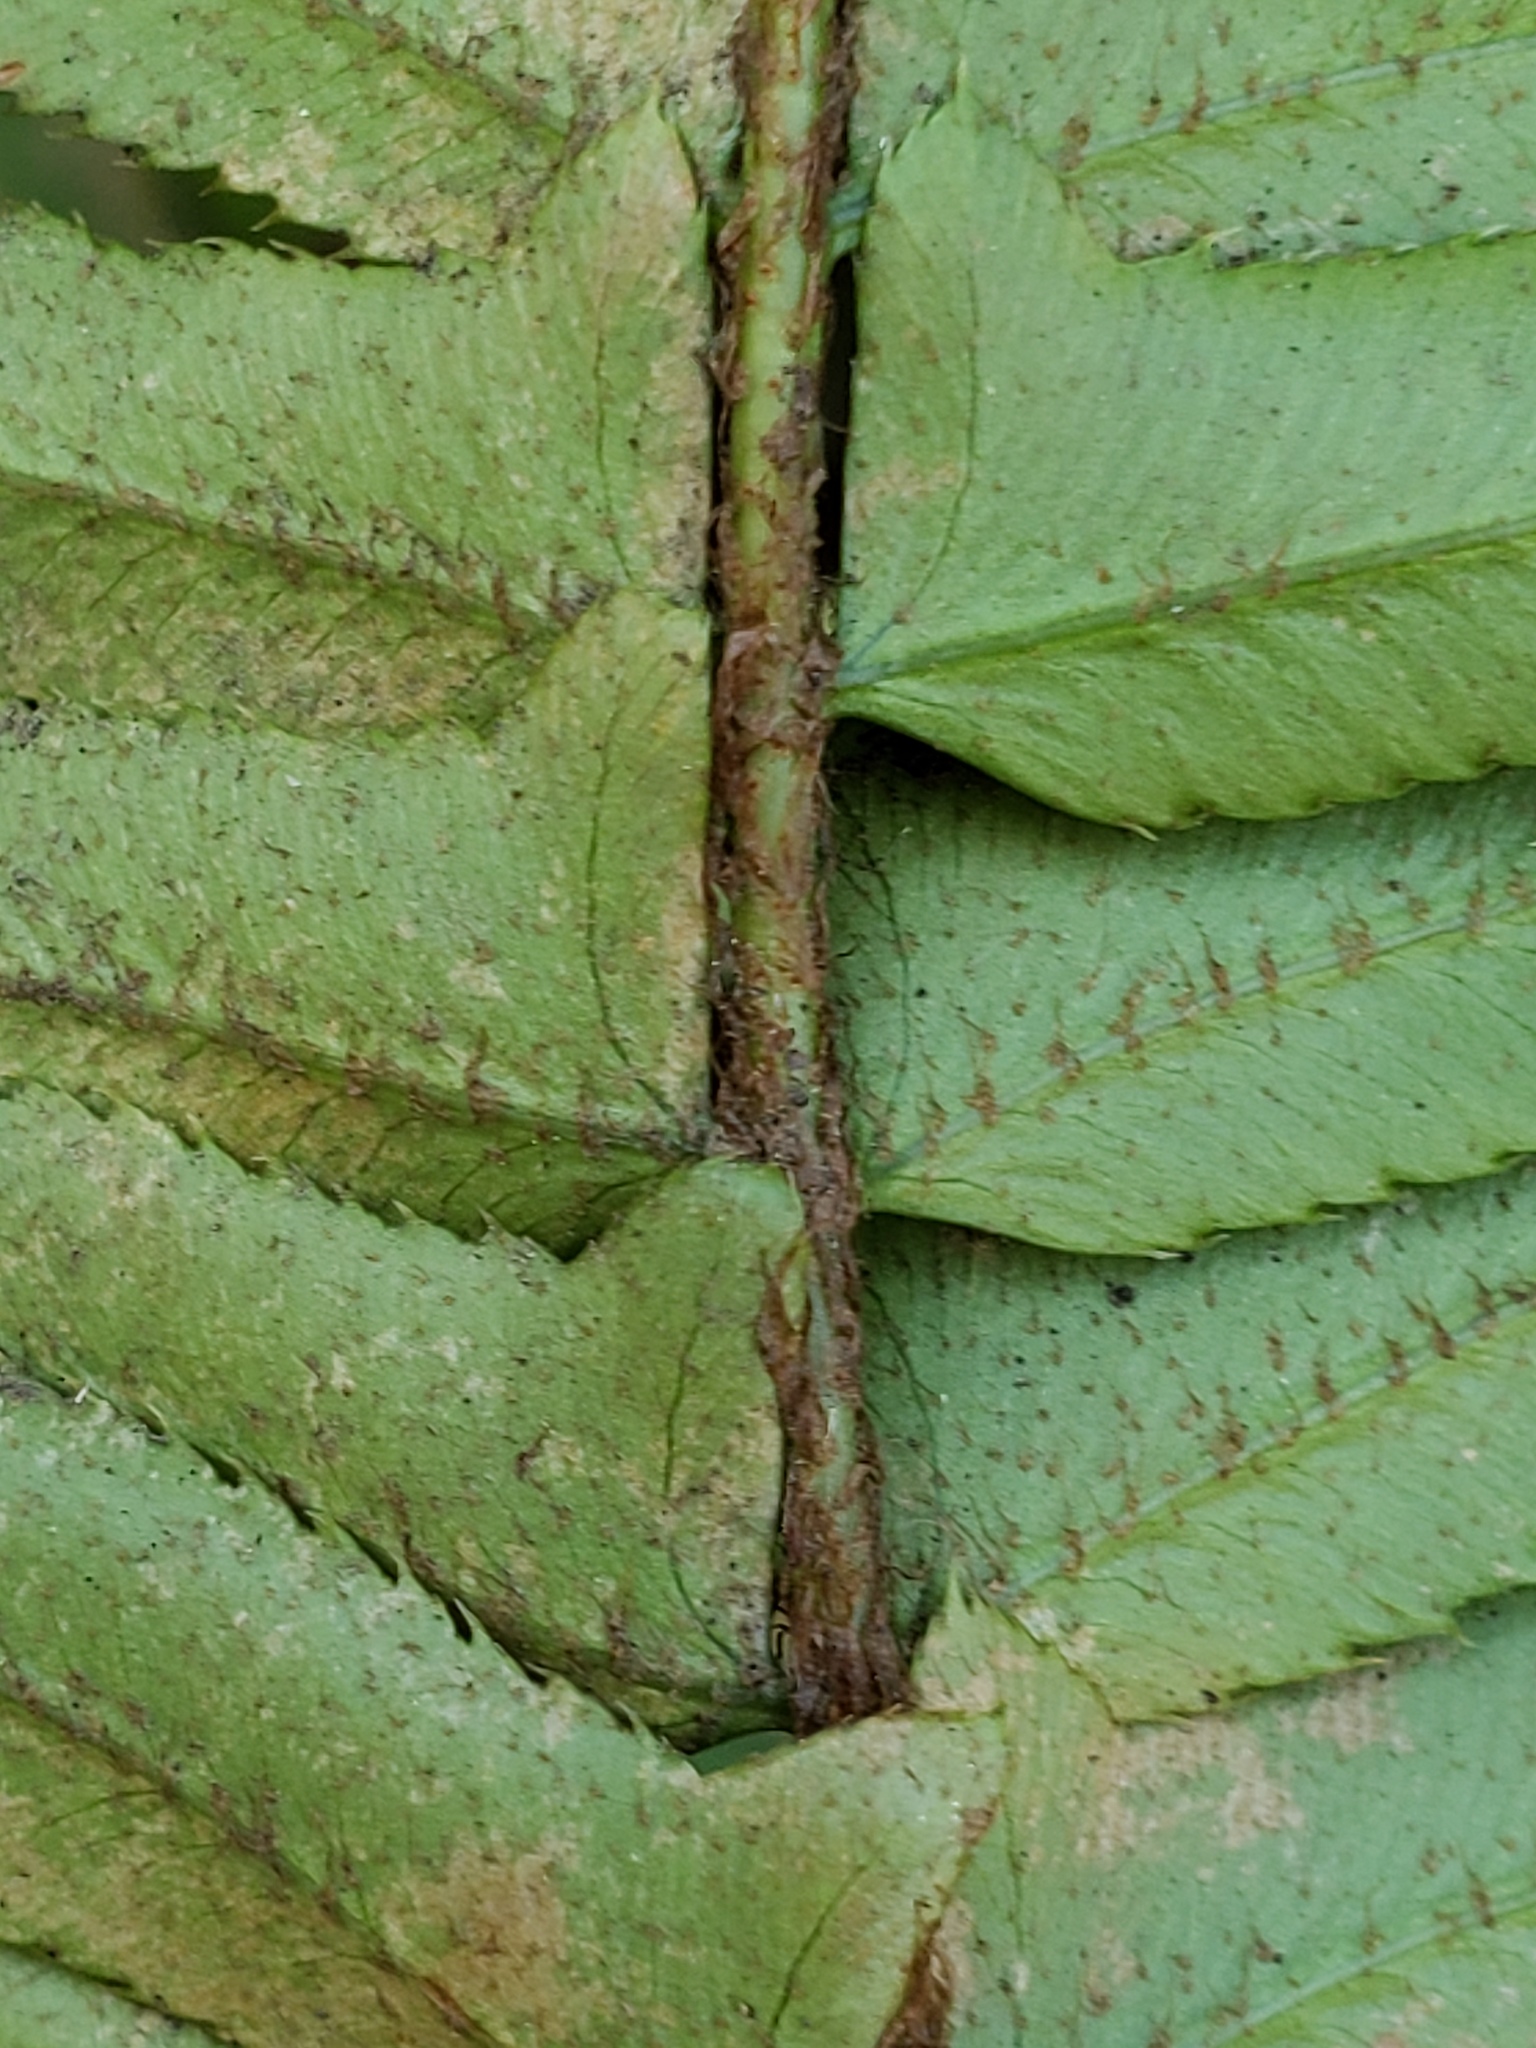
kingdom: Plantae
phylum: Tracheophyta
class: Polypodiopsida
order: Polypodiales
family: Dryopteridaceae
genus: Polystichum
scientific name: Polystichum munitum
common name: Western sword-fern
